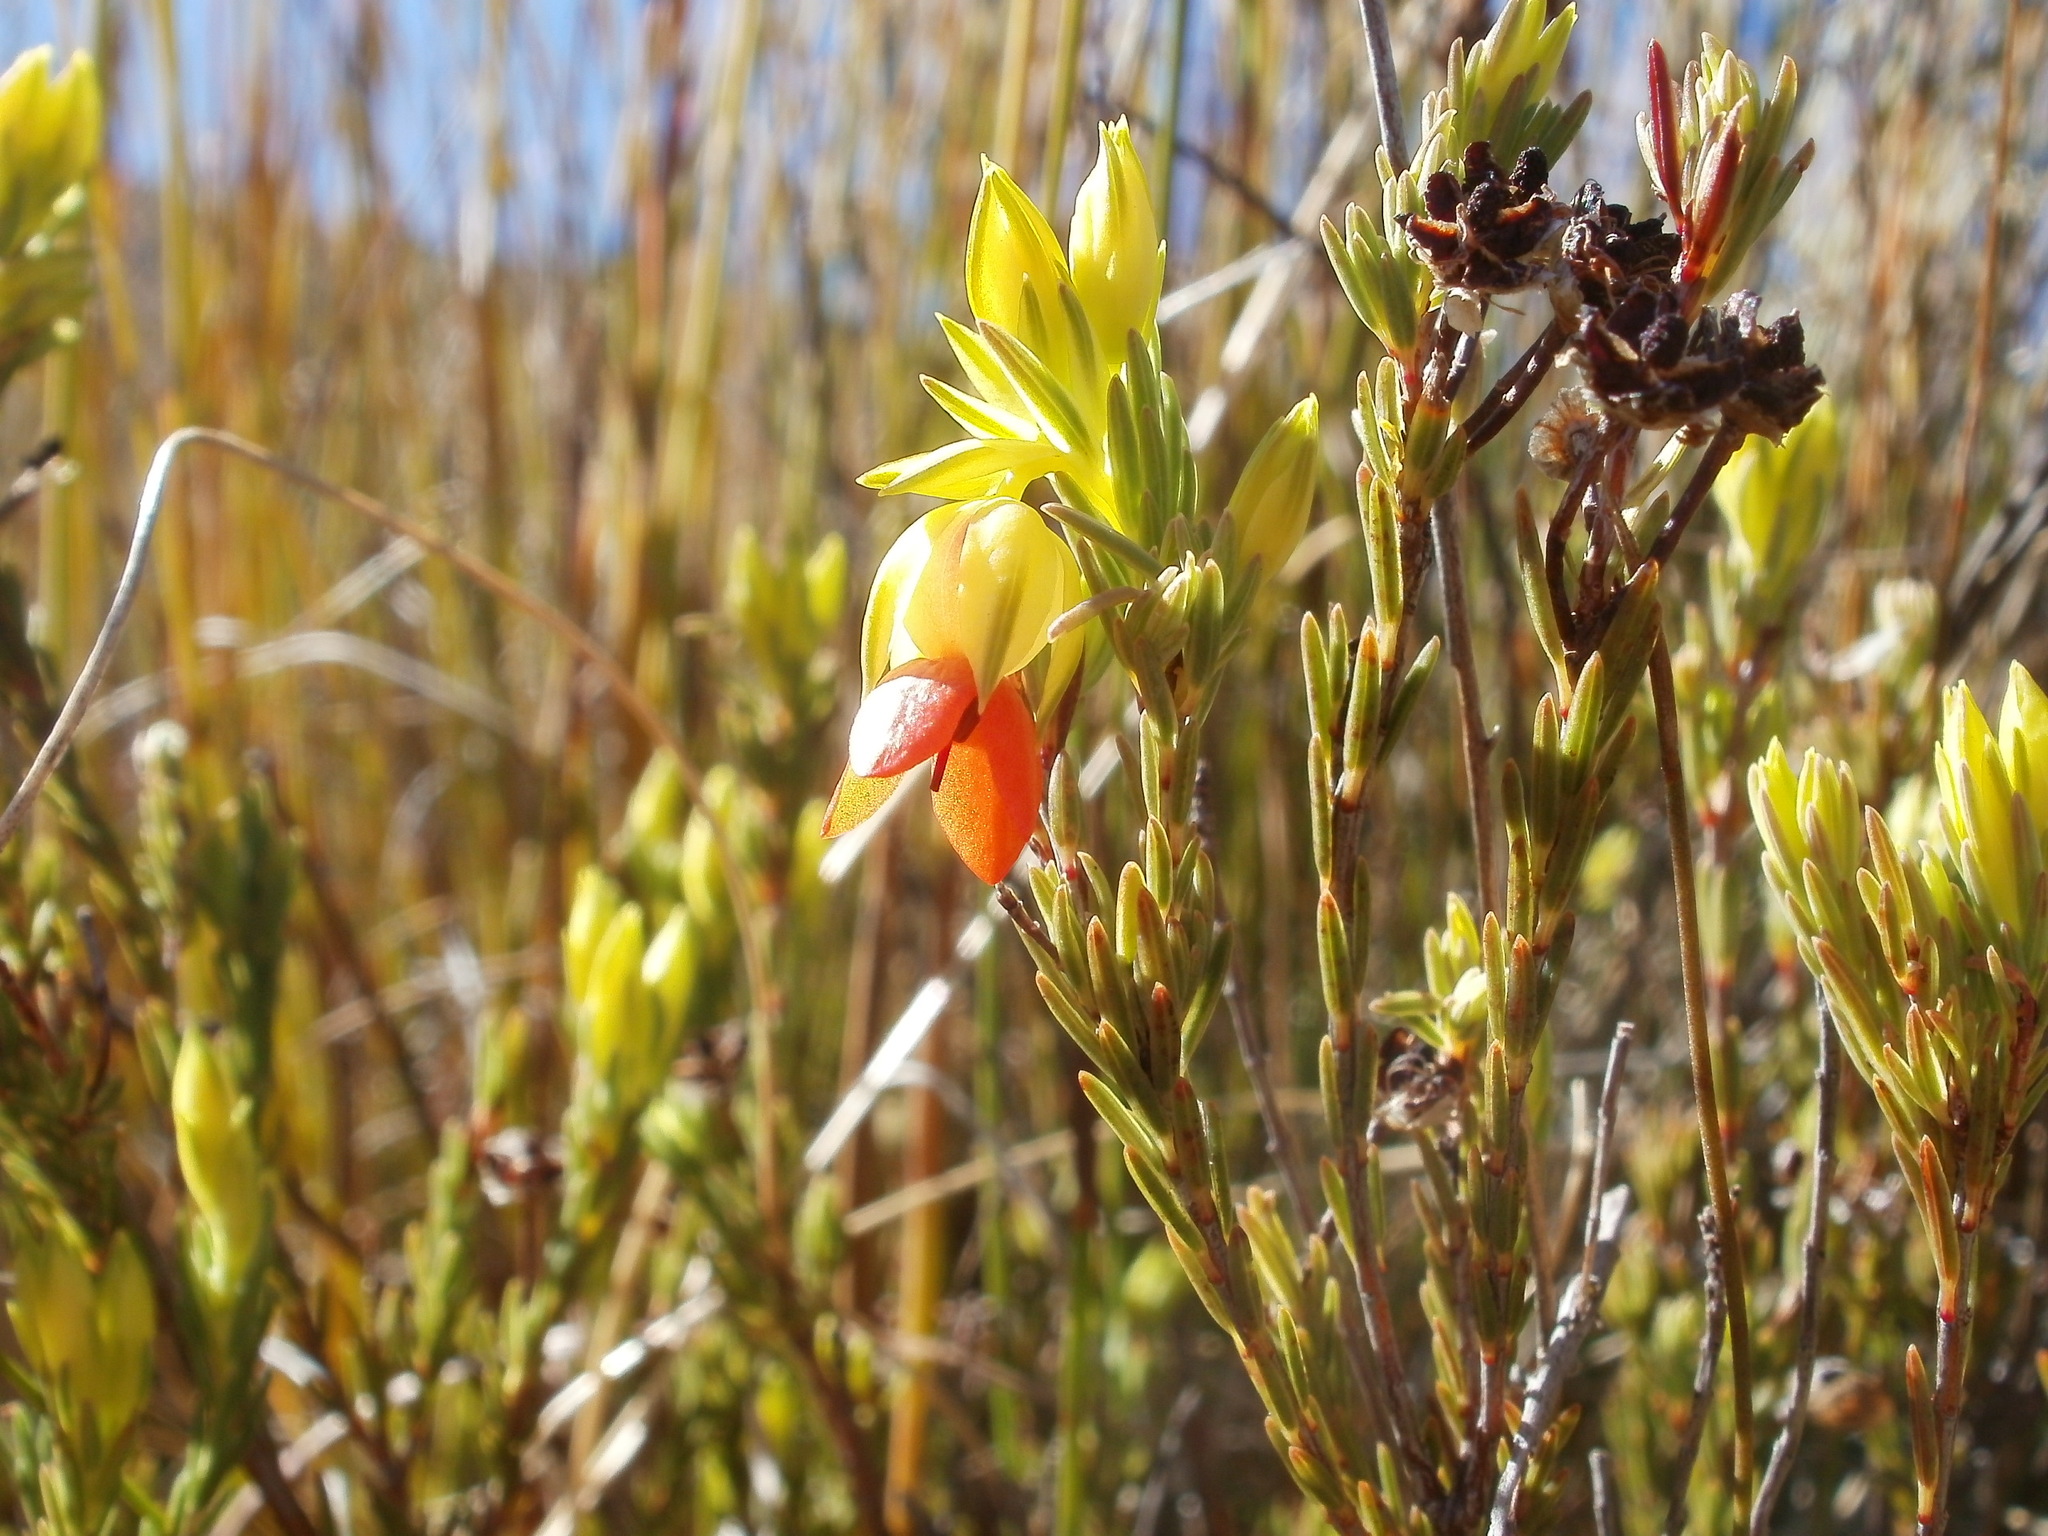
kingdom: Plantae
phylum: Tracheophyta
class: Magnoliopsida
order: Ericales
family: Ericaceae
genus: Erica
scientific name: Erica thunbergii
